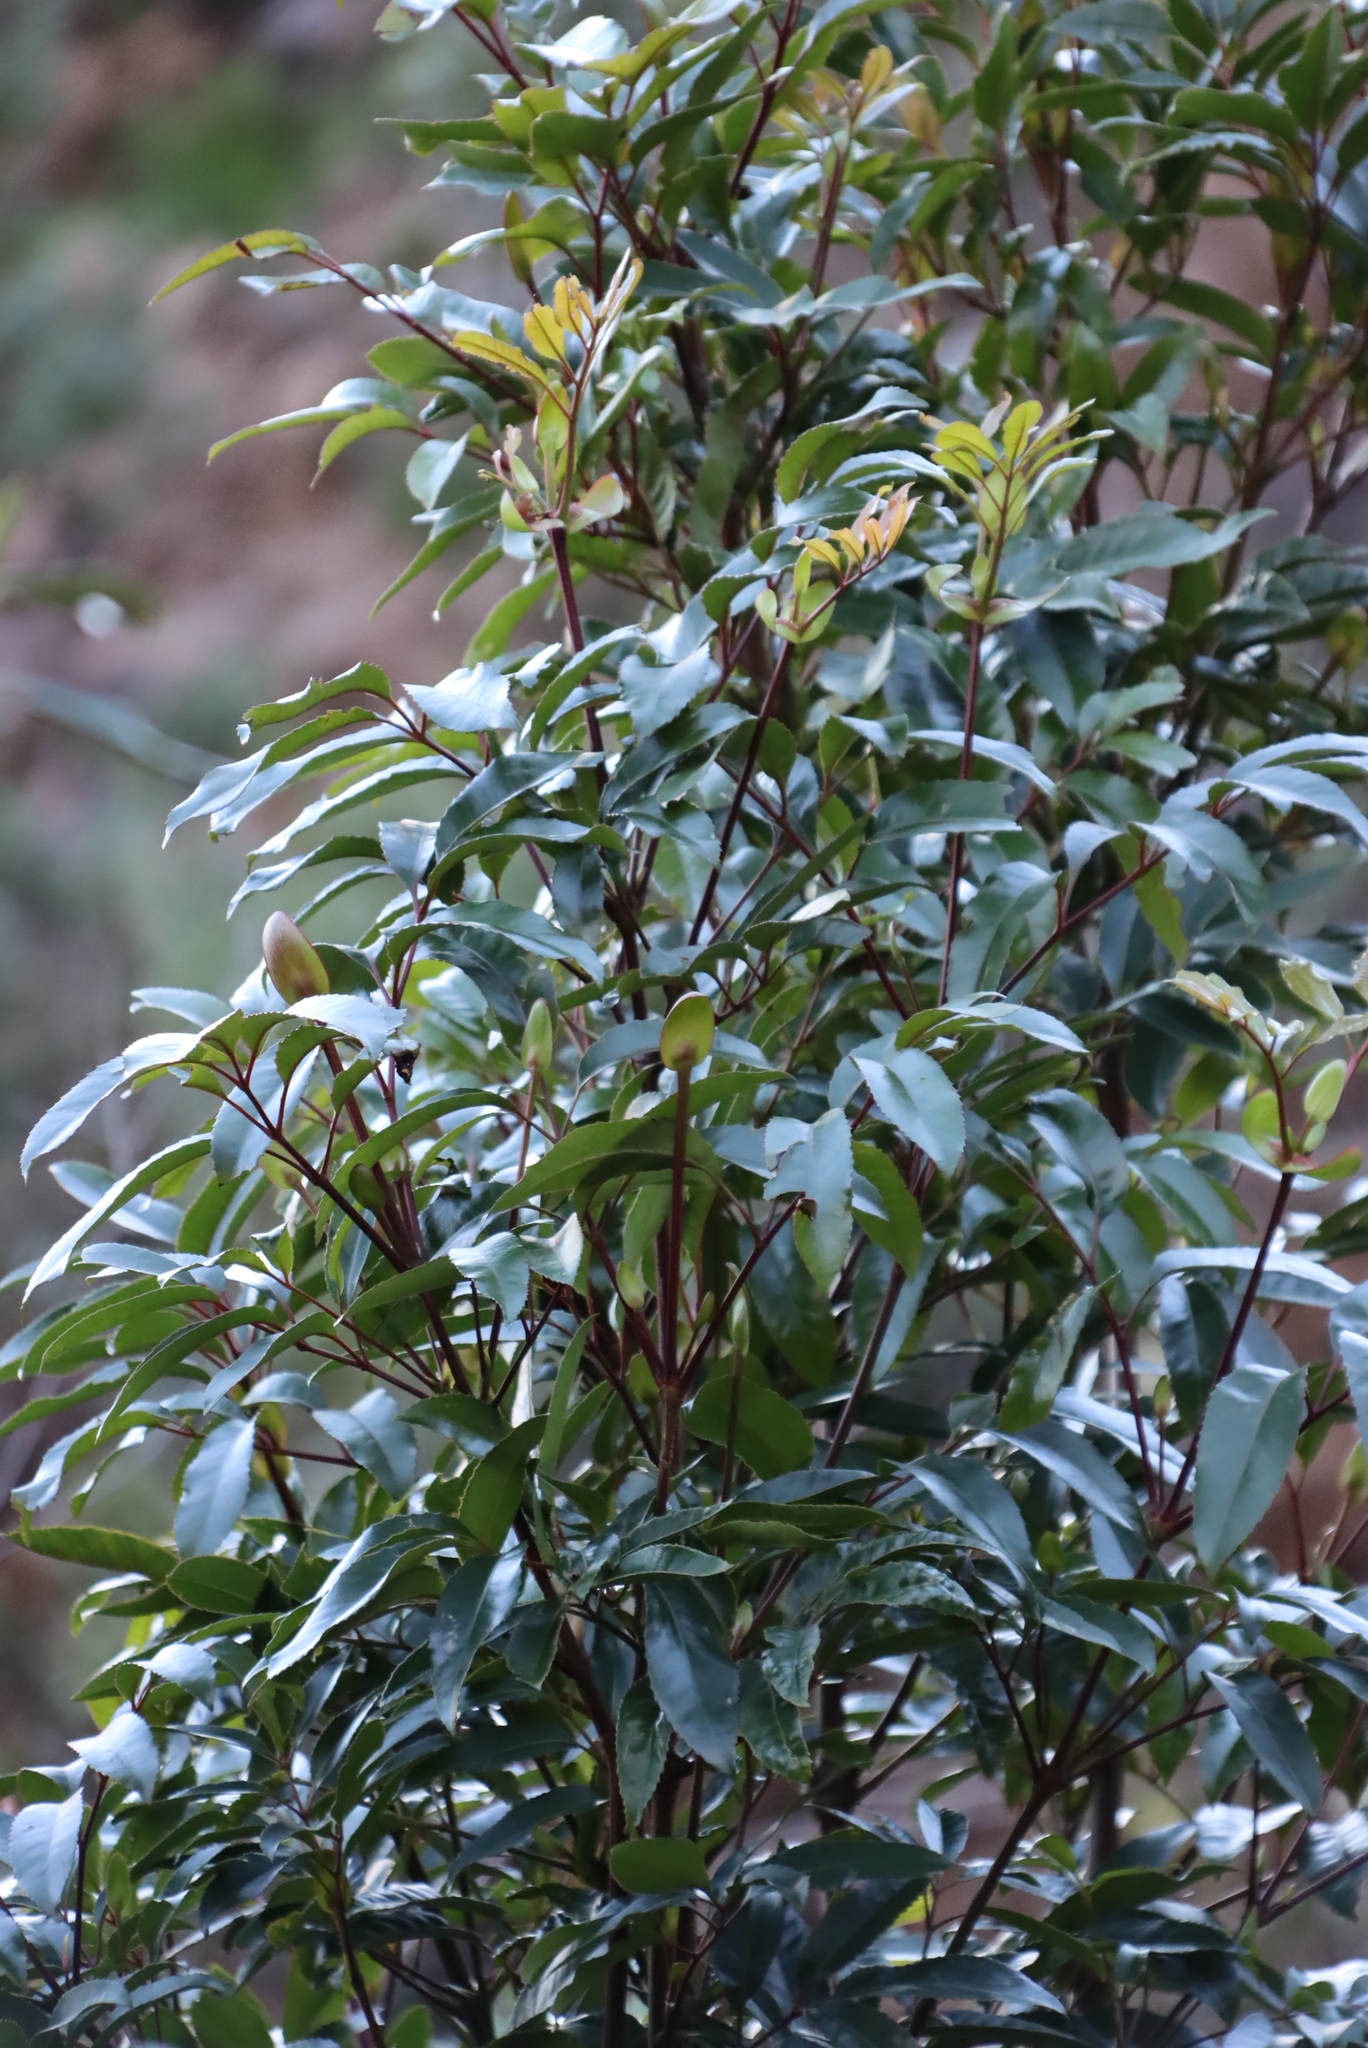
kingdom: Plantae
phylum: Tracheophyta
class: Magnoliopsida
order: Oxalidales
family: Cunoniaceae
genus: Cunonia
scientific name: Cunonia capensis
